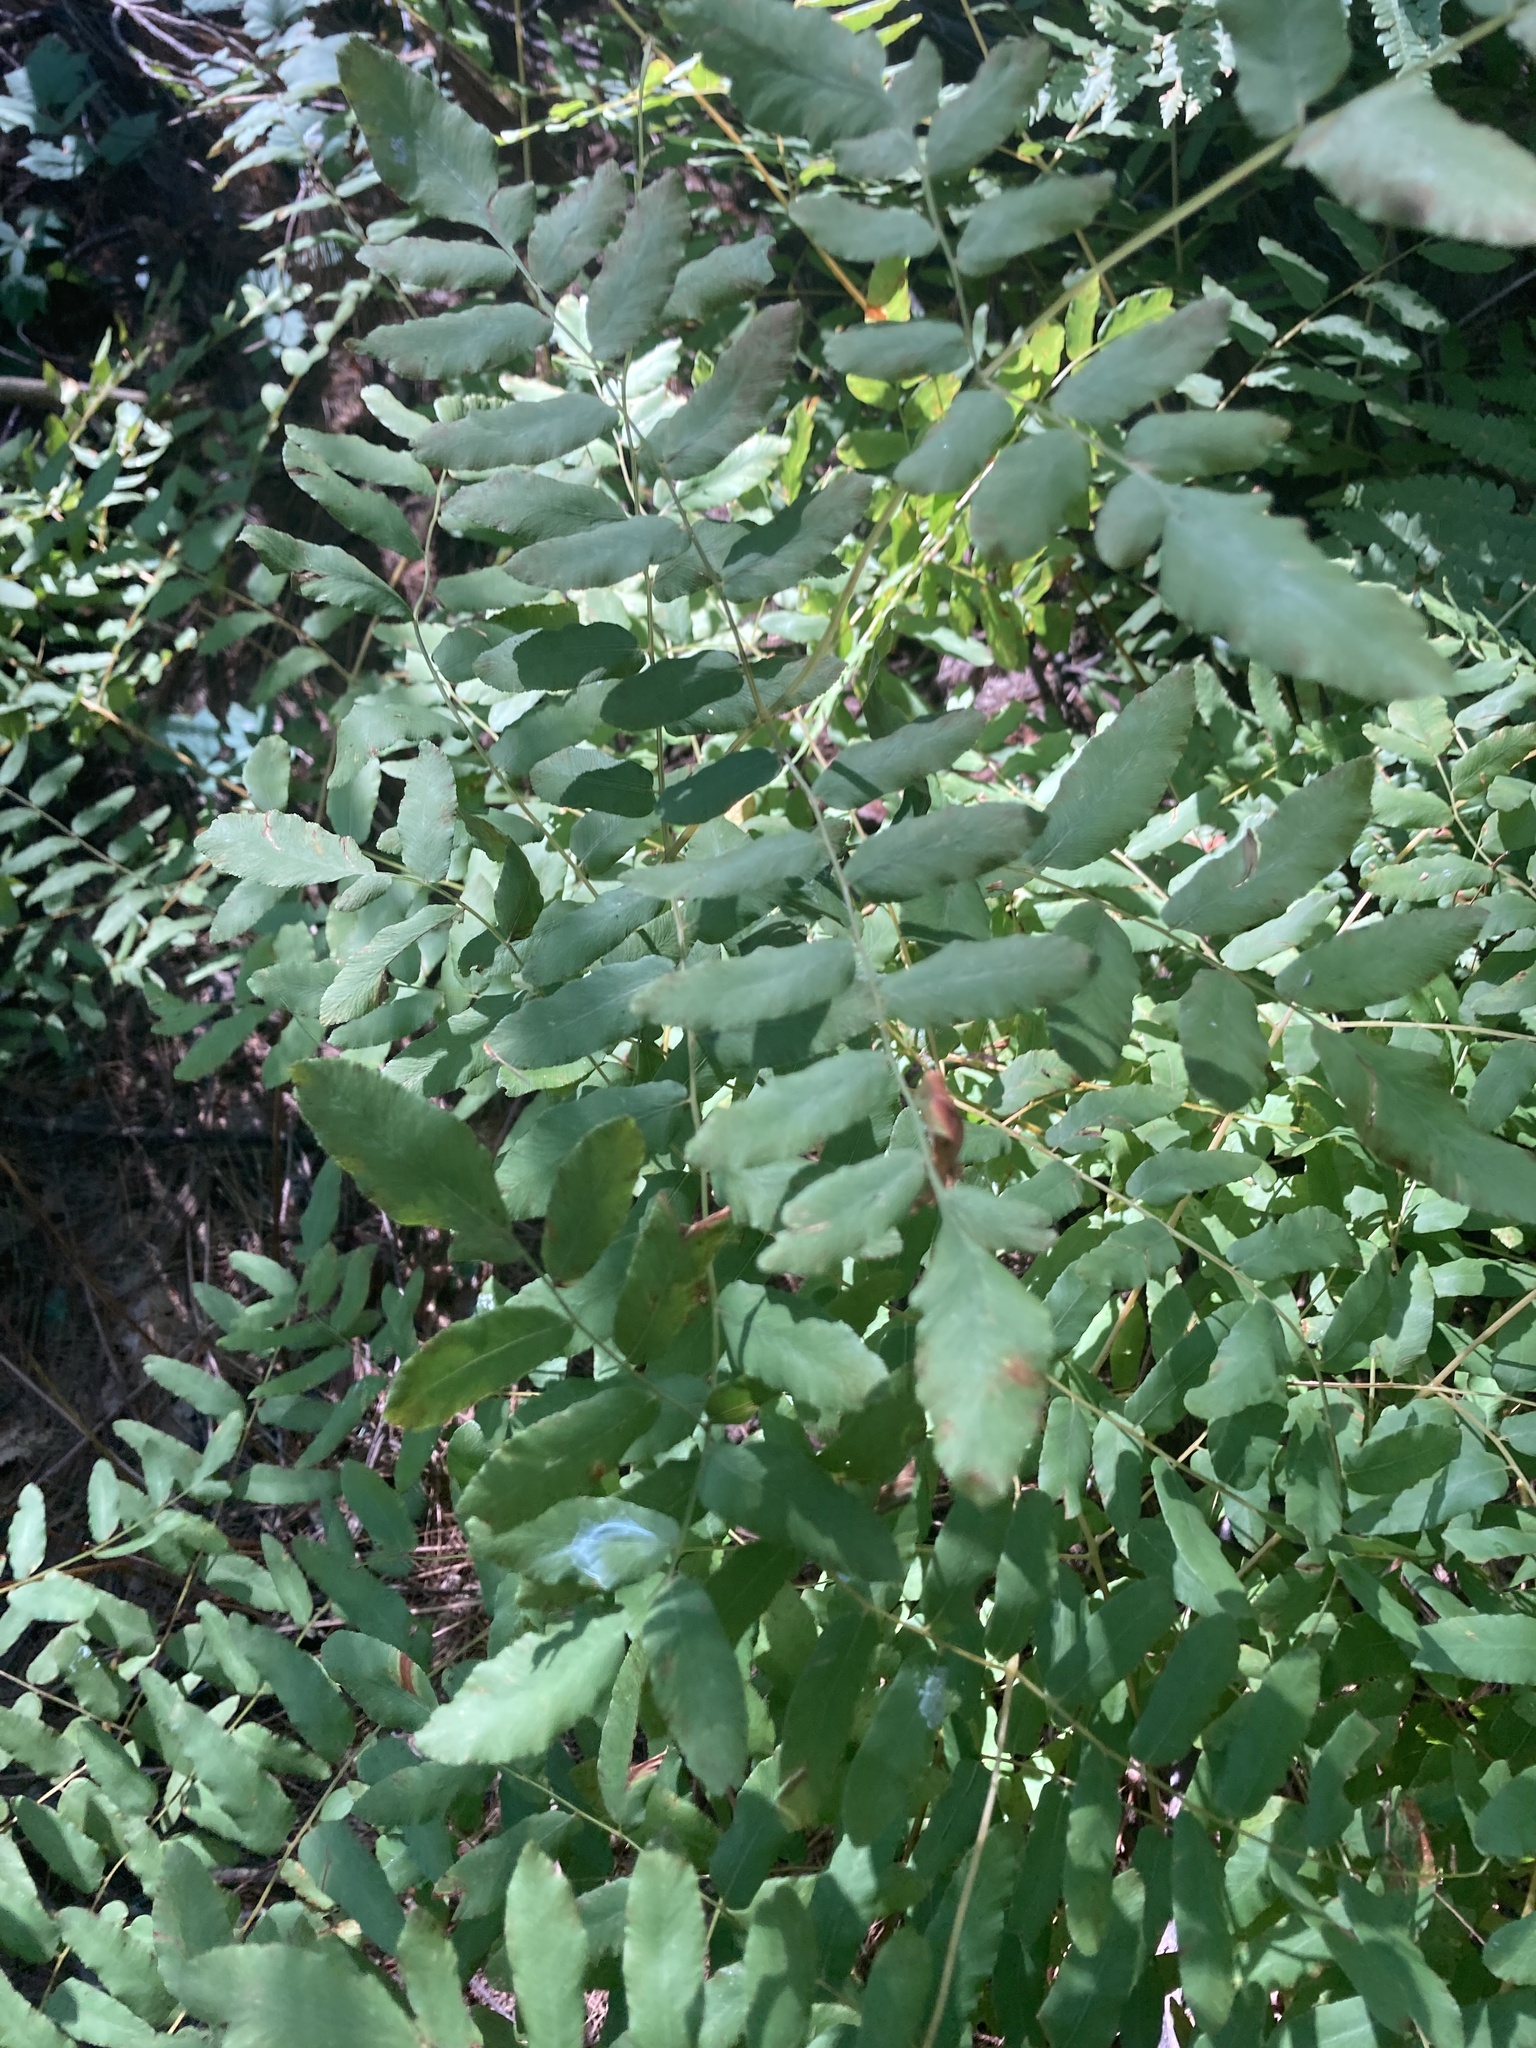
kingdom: Plantae
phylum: Tracheophyta
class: Polypodiopsida
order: Osmundales
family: Osmundaceae
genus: Osmunda
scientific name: Osmunda spectabilis
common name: American royal fern
